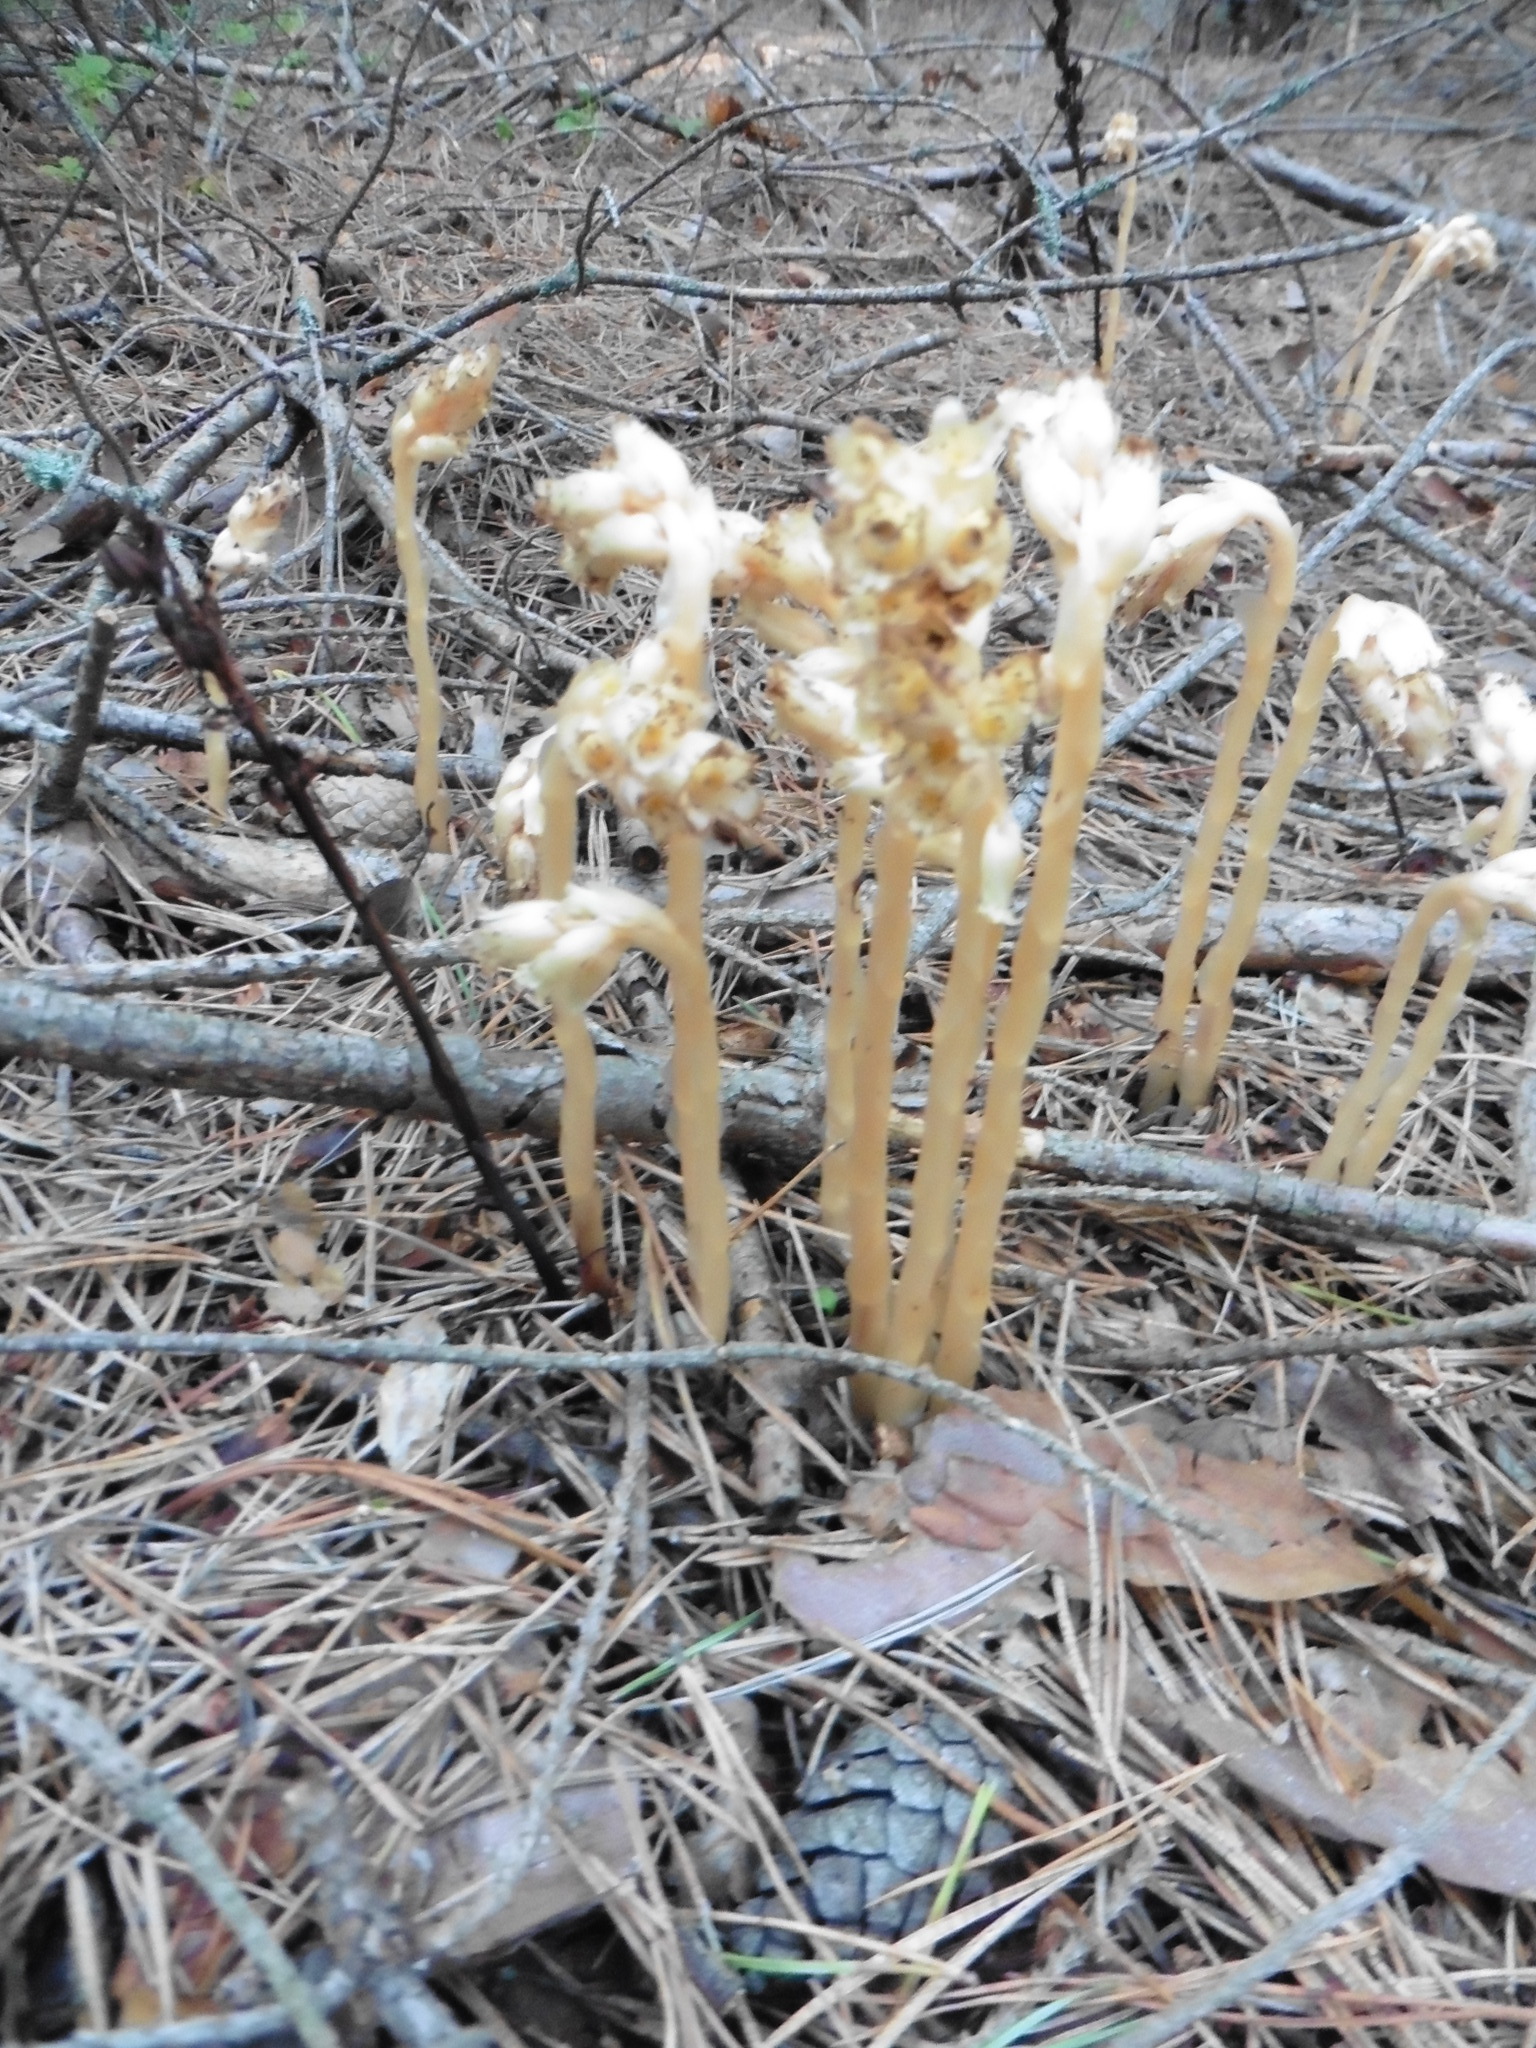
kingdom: Plantae
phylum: Tracheophyta
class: Magnoliopsida
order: Ericales
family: Ericaceae
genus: Hypopitys
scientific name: Hypopitys monotropa
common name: Yellow bird's-nest
